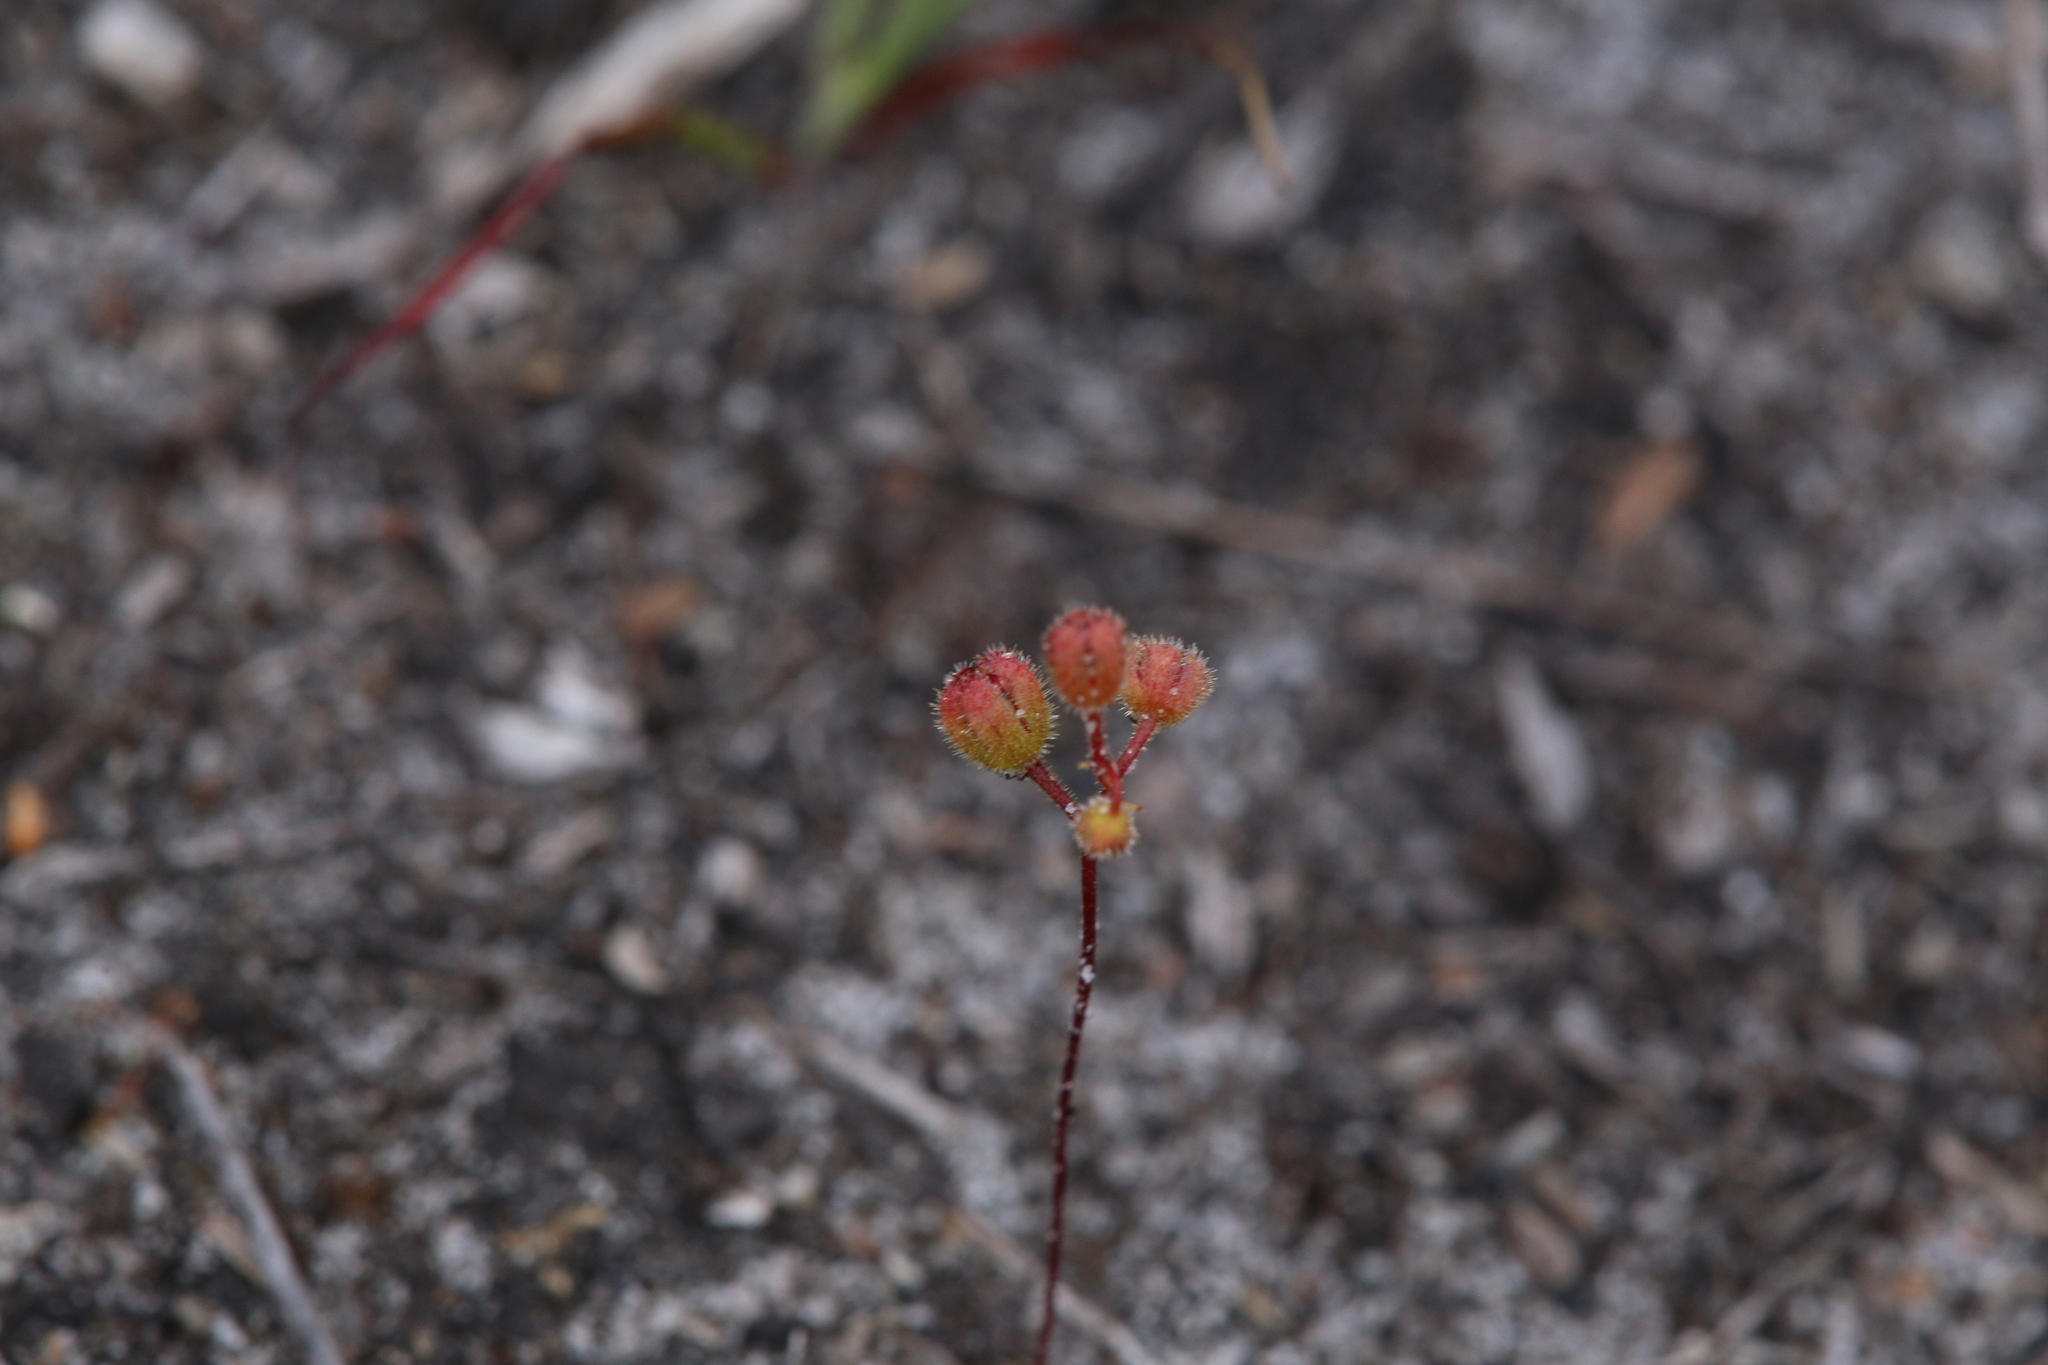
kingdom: Plantae
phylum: Tracheophyta
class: Magnoliopsida
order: Caryophyllales
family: Droseraceae
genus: Drosera
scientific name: Drosera pulchella
